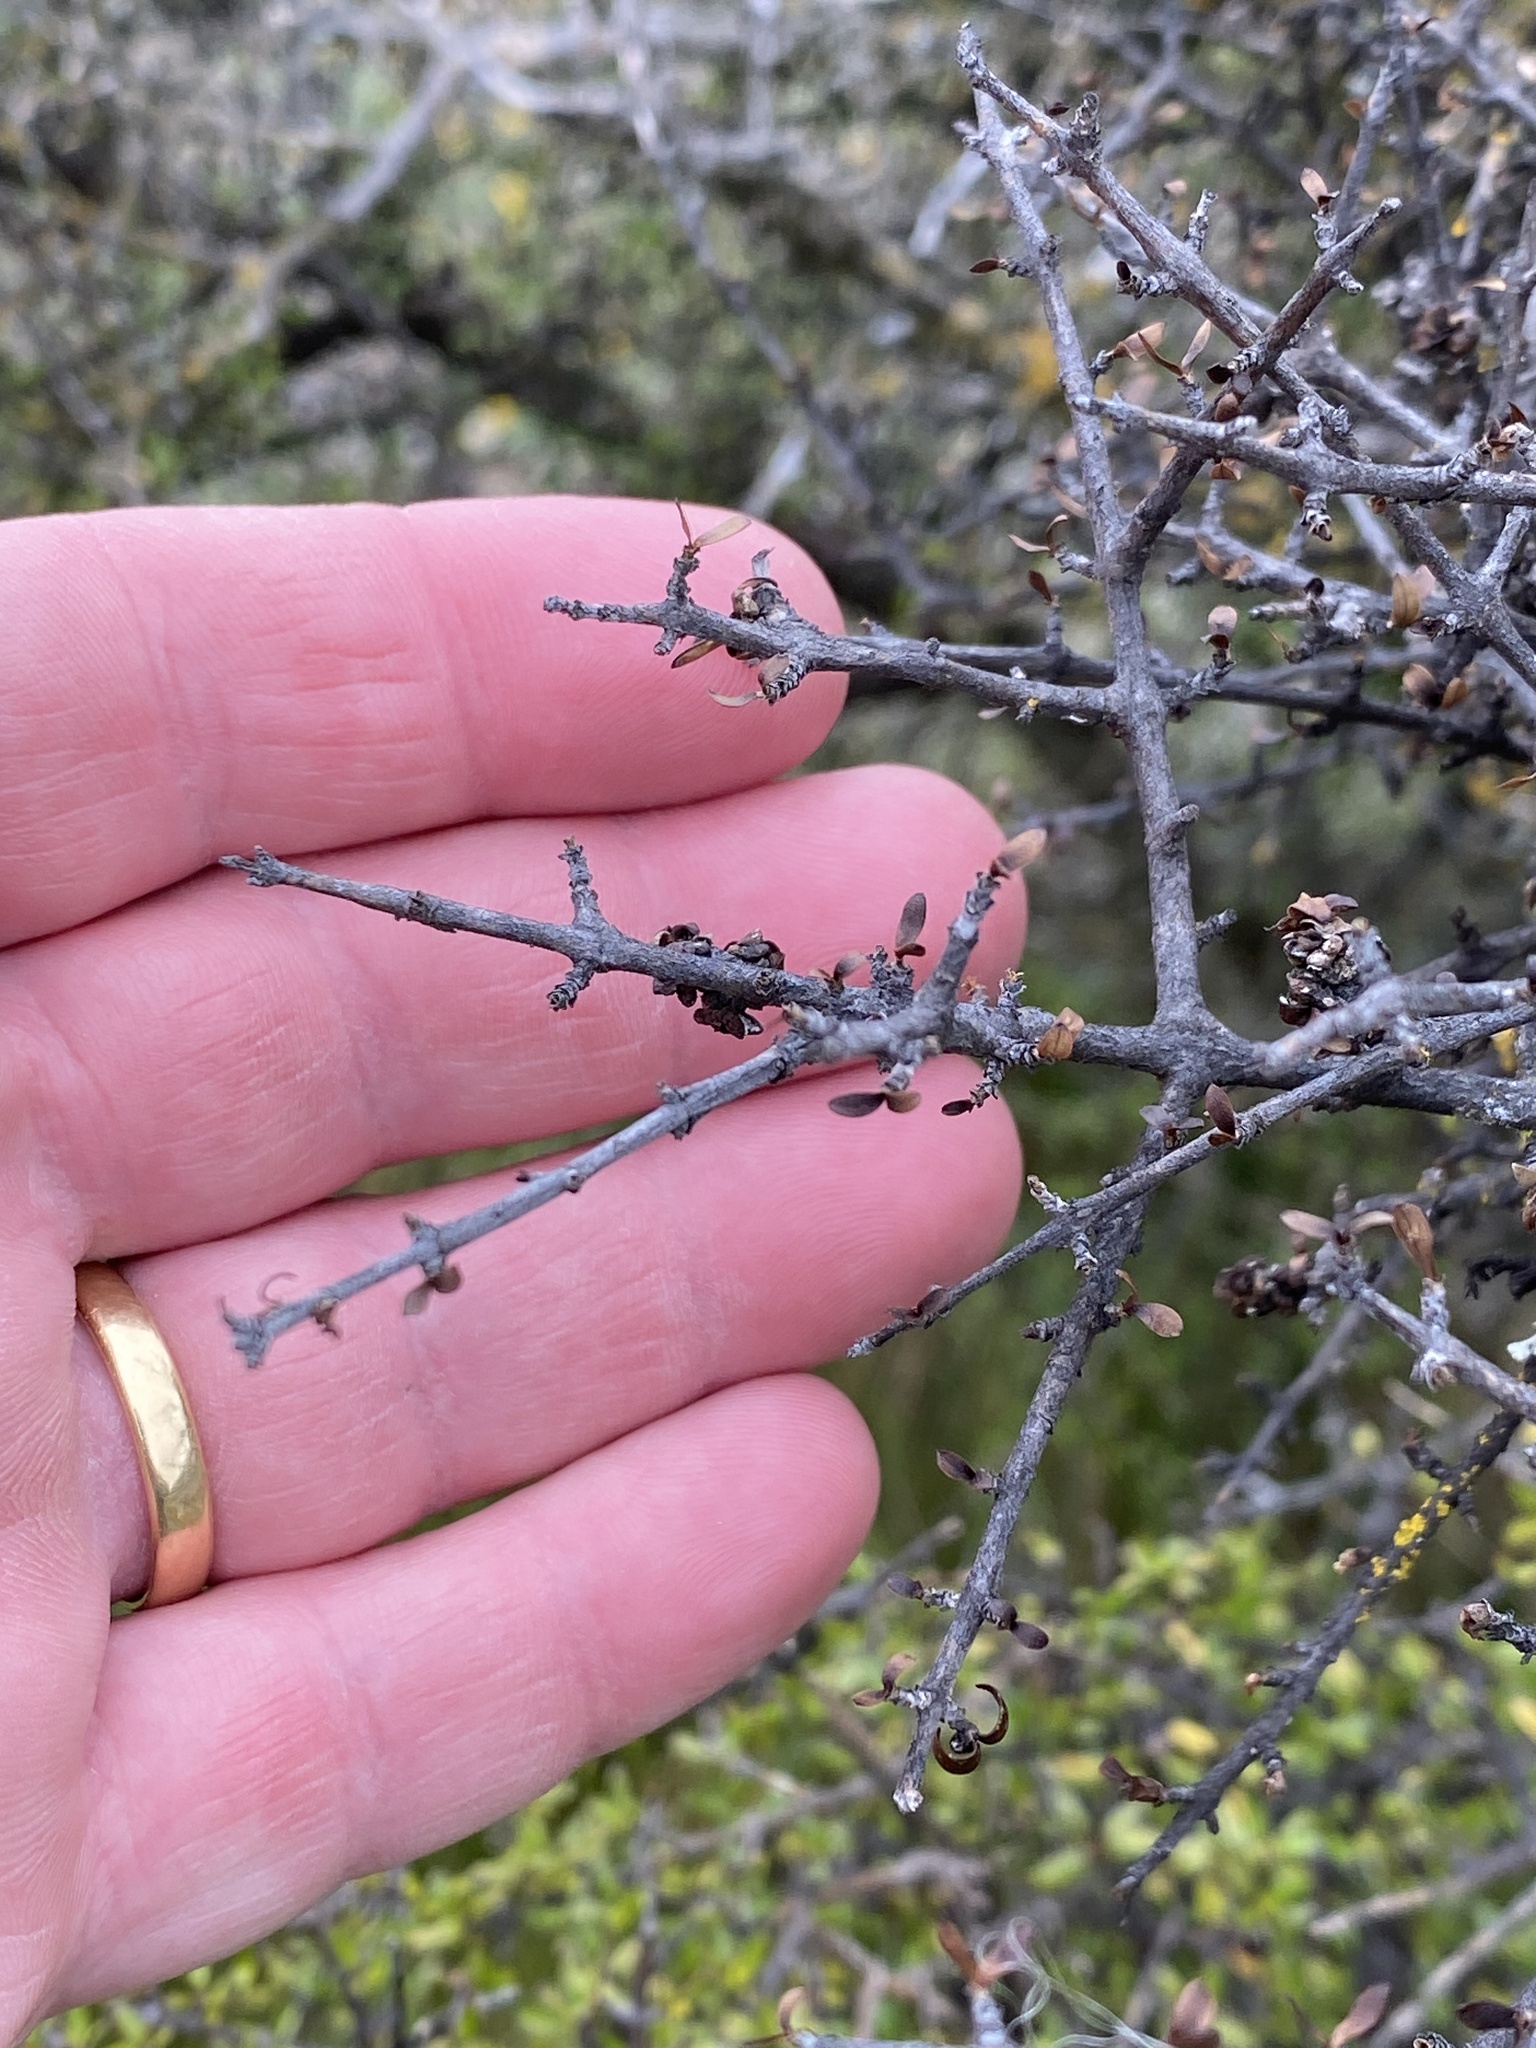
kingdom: Plantae
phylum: Tracheophyta
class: Magnoliopsida
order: Asterales
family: Argophyllaceae
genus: Corokia
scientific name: Corokia cotoneaster
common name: Wire nettingbush
